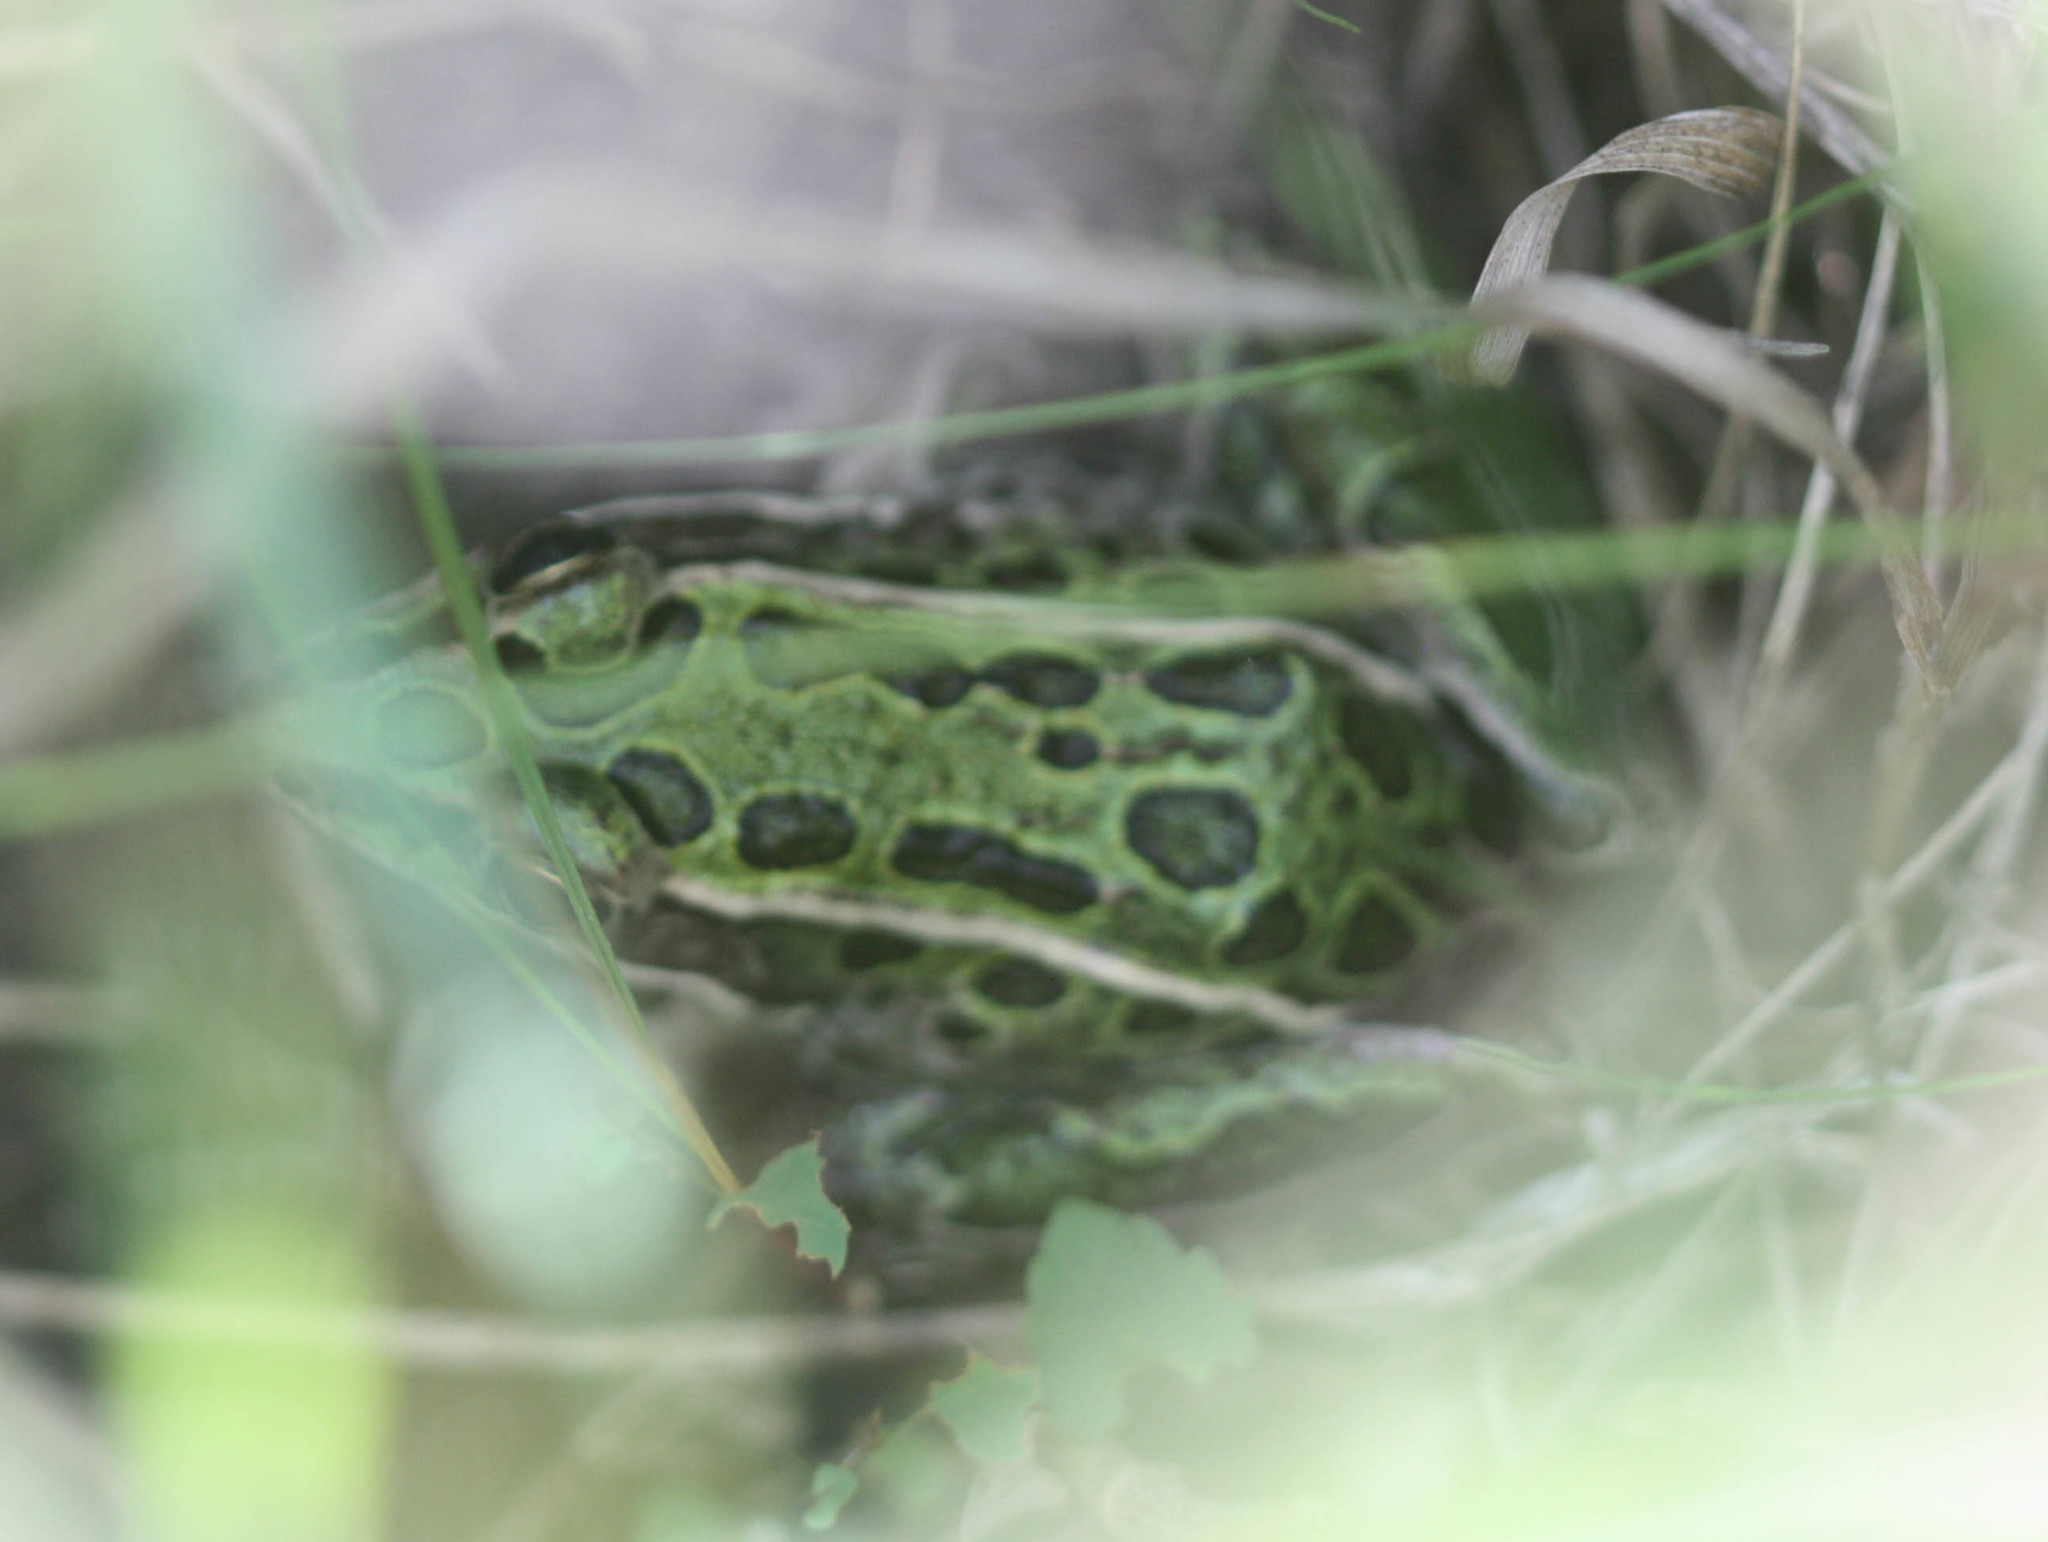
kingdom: Animalia
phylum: Chordata
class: Amphibia
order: Anura
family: Ranidae
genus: Lithobates
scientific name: Lithobates pipiens
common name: Northern leopard frog
